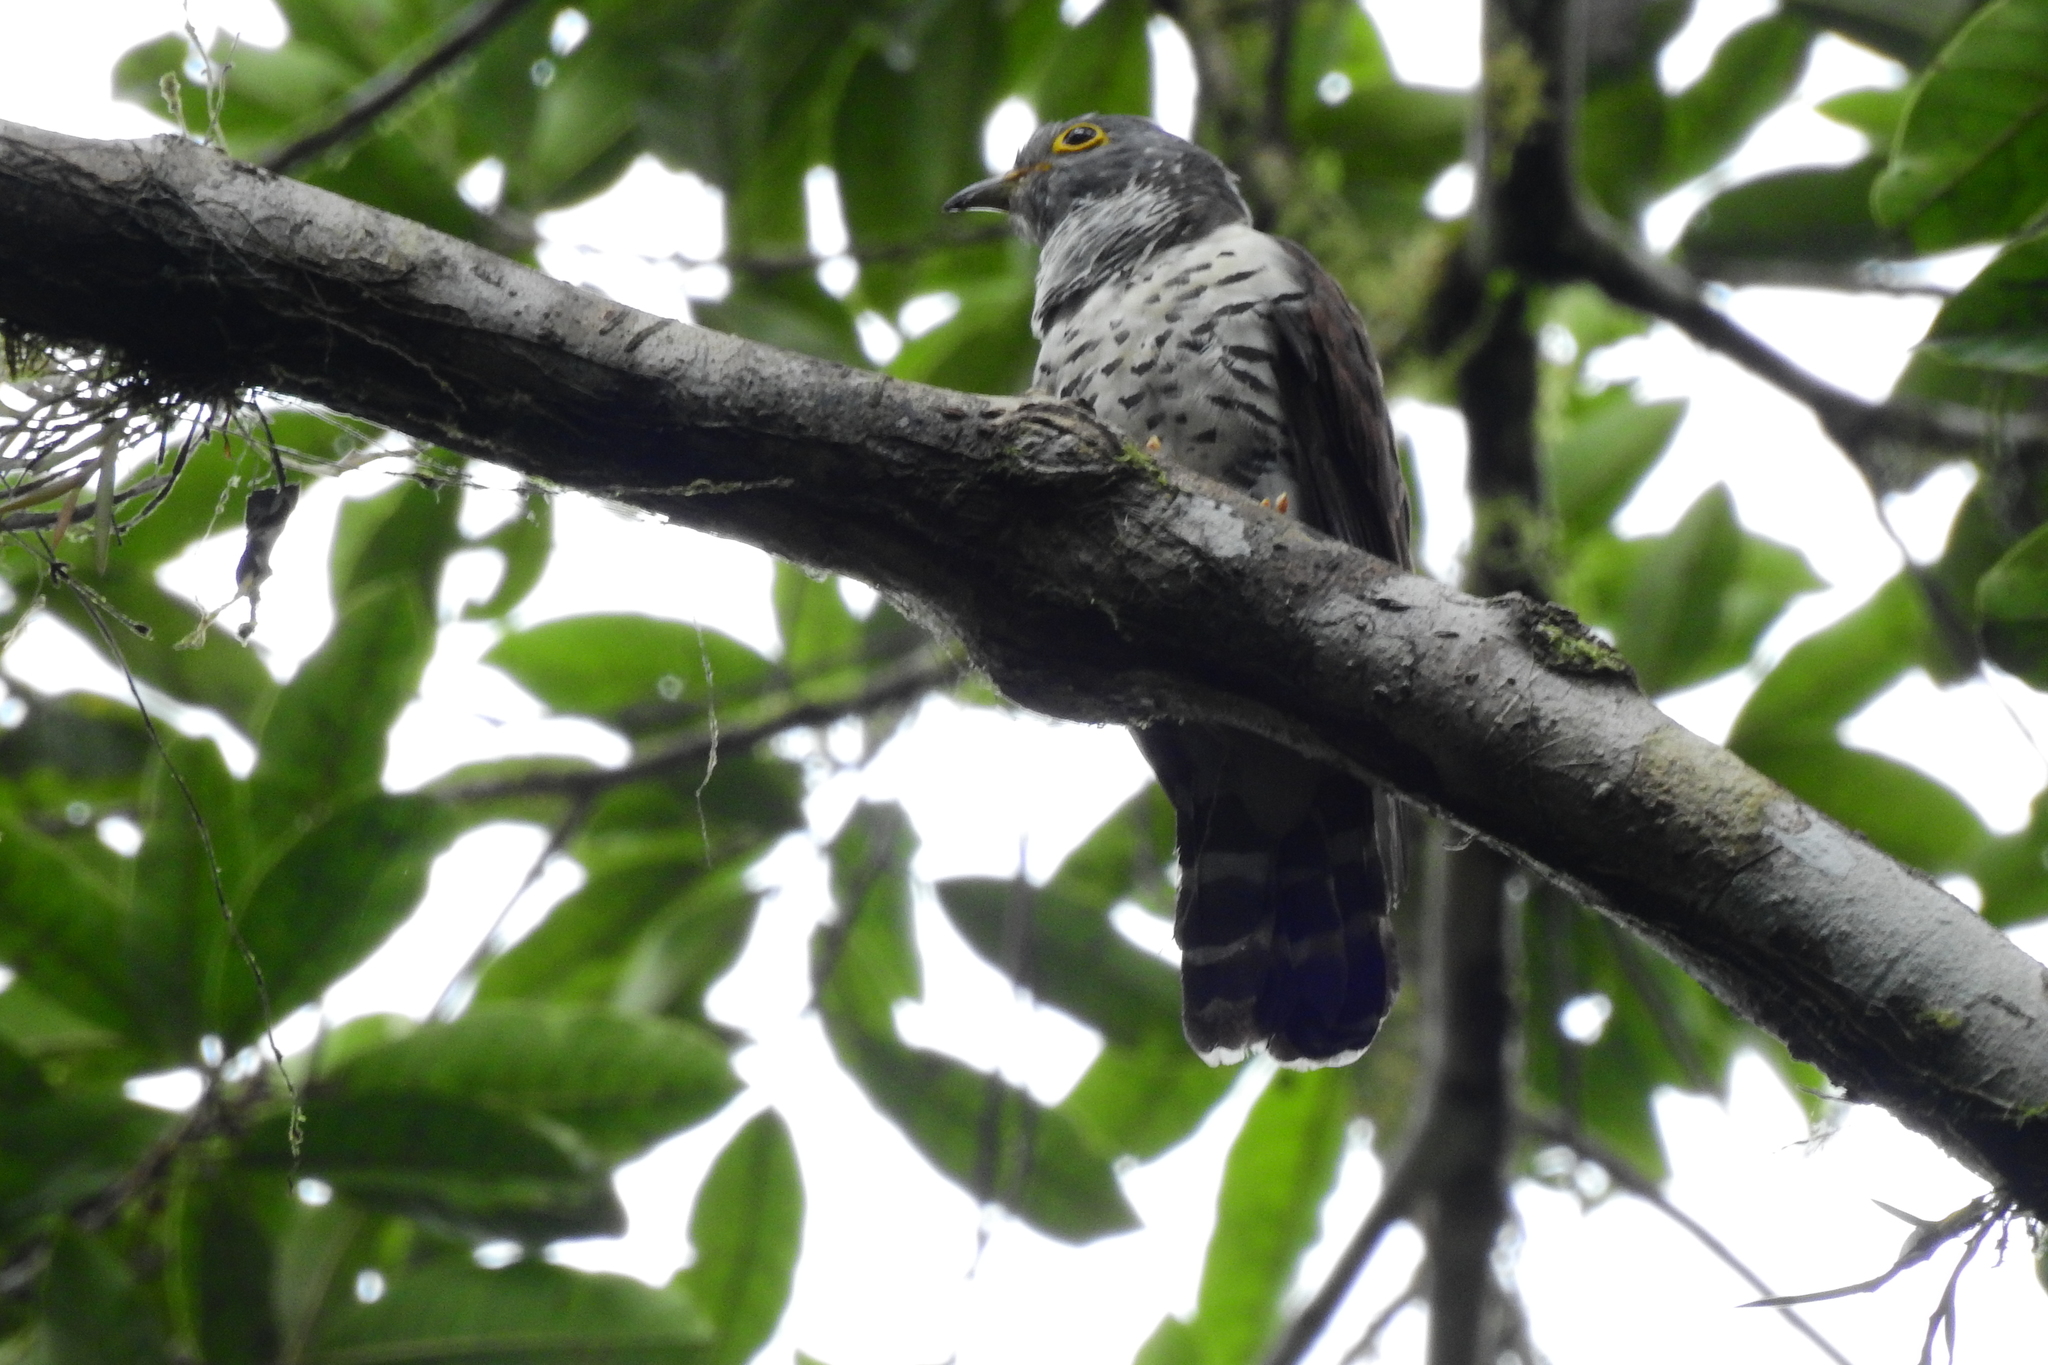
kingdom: Animalia
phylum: Chordata
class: Aves
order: Cuculiformes
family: Cuculidae
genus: Cuculus
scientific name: Cuculus crassirostris
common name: Sulawesi cuckoo
